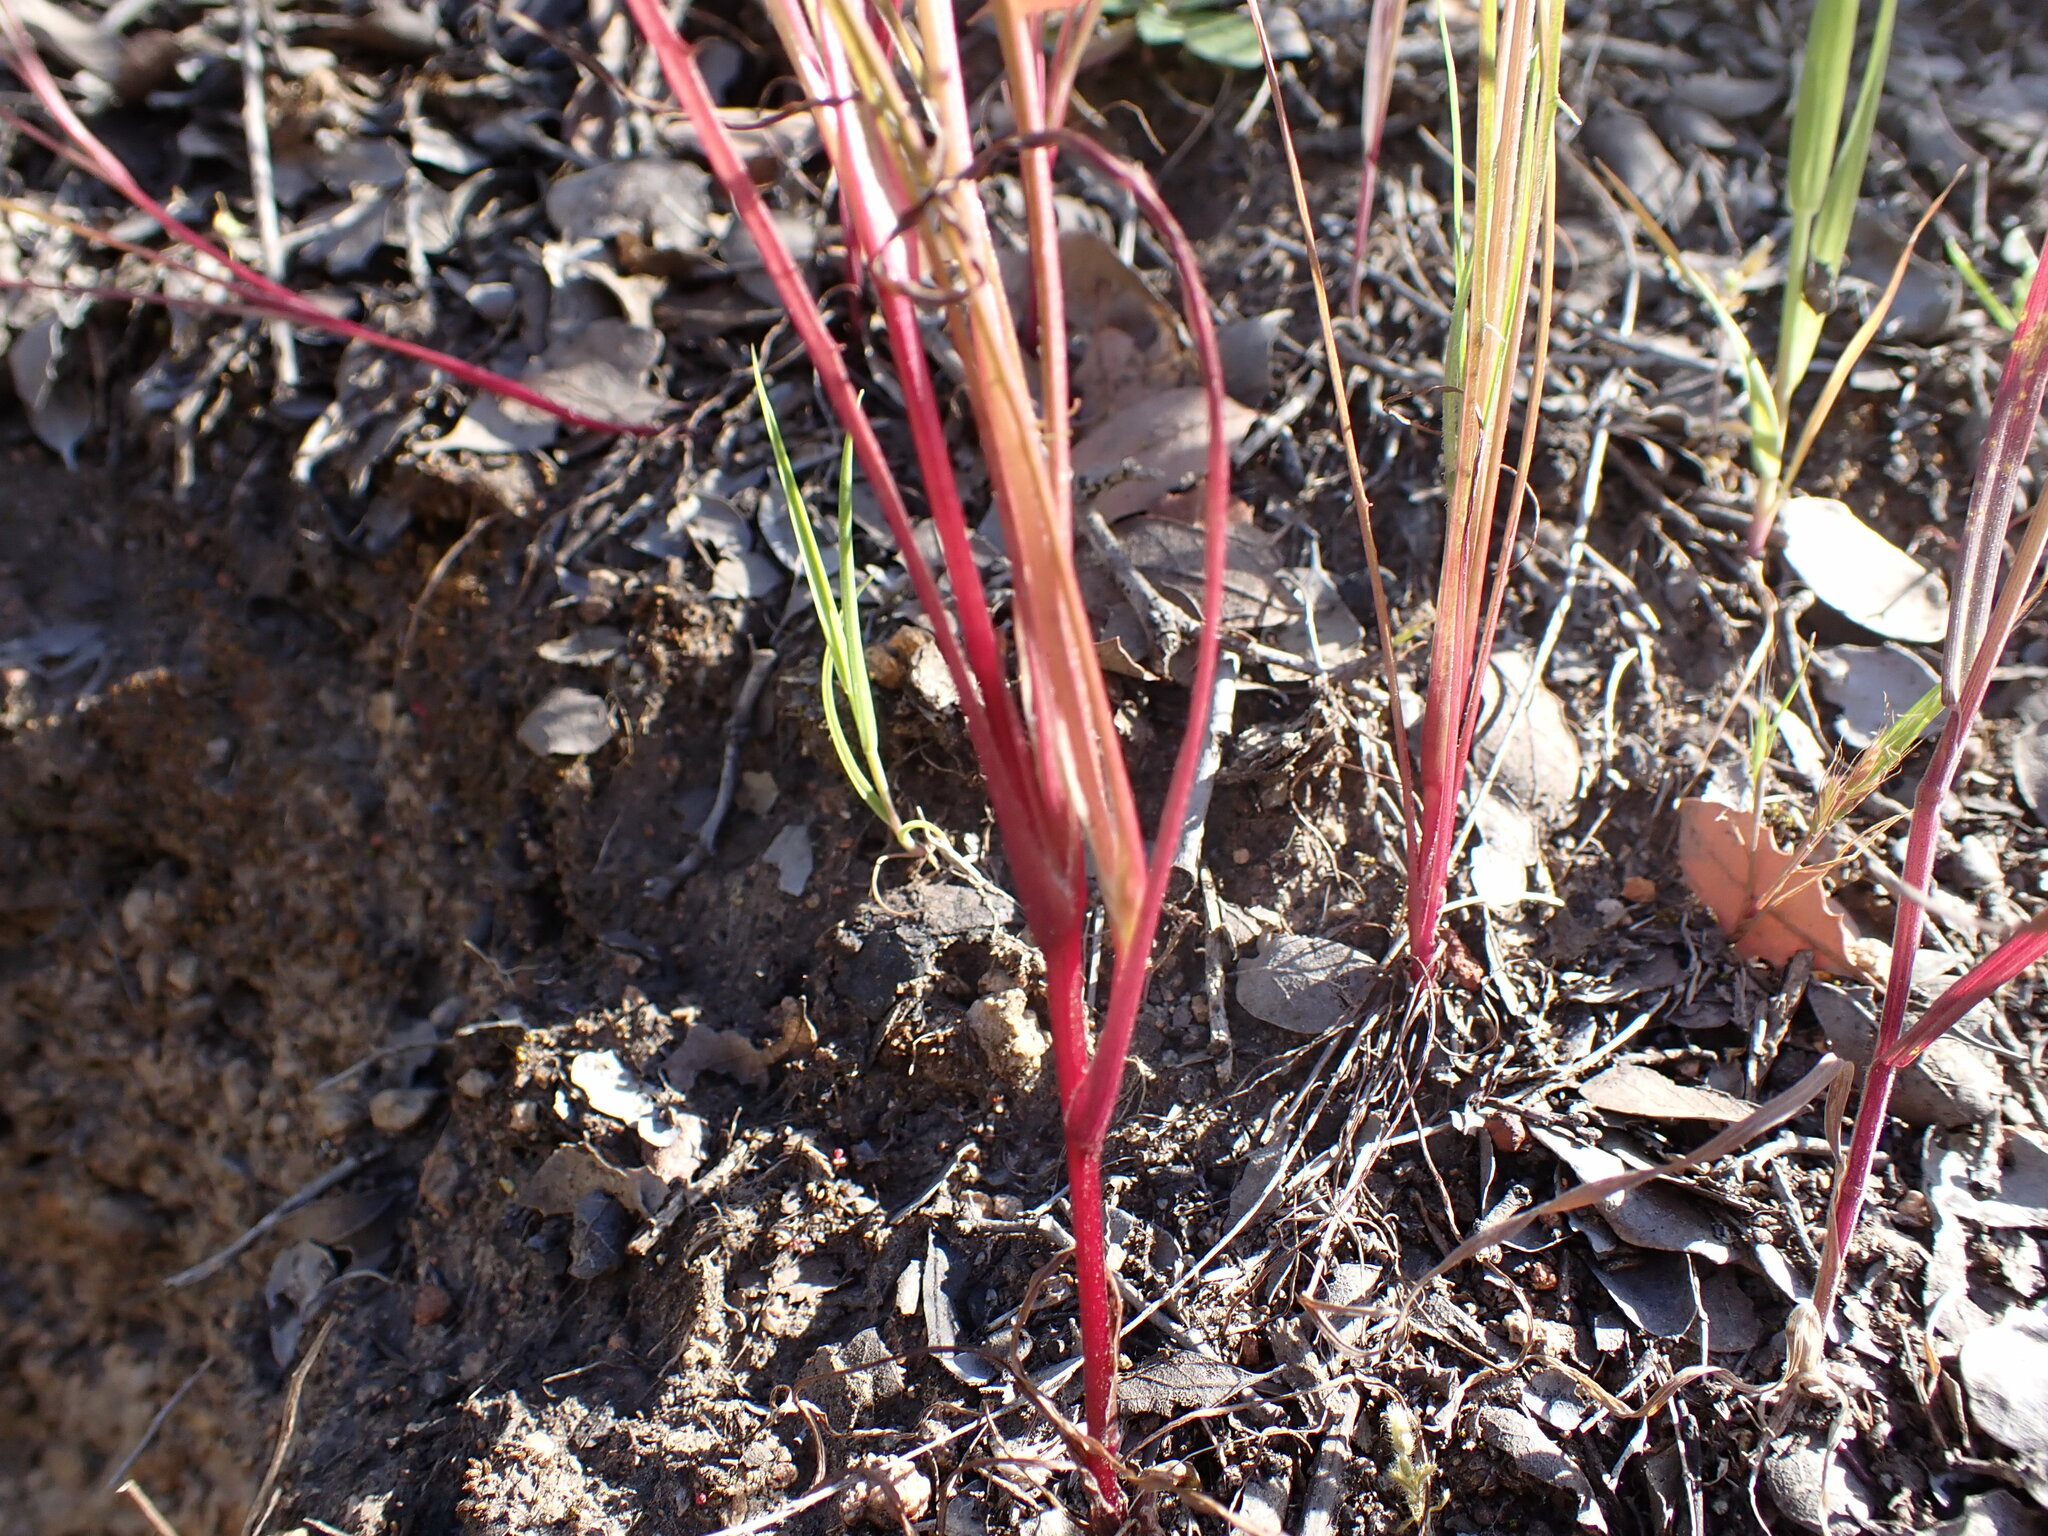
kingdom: Plantae
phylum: Tracheophyta
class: Magnoliopsida
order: Asterales
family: Asteraceae
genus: Microseris
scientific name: Microseris lindleyi
